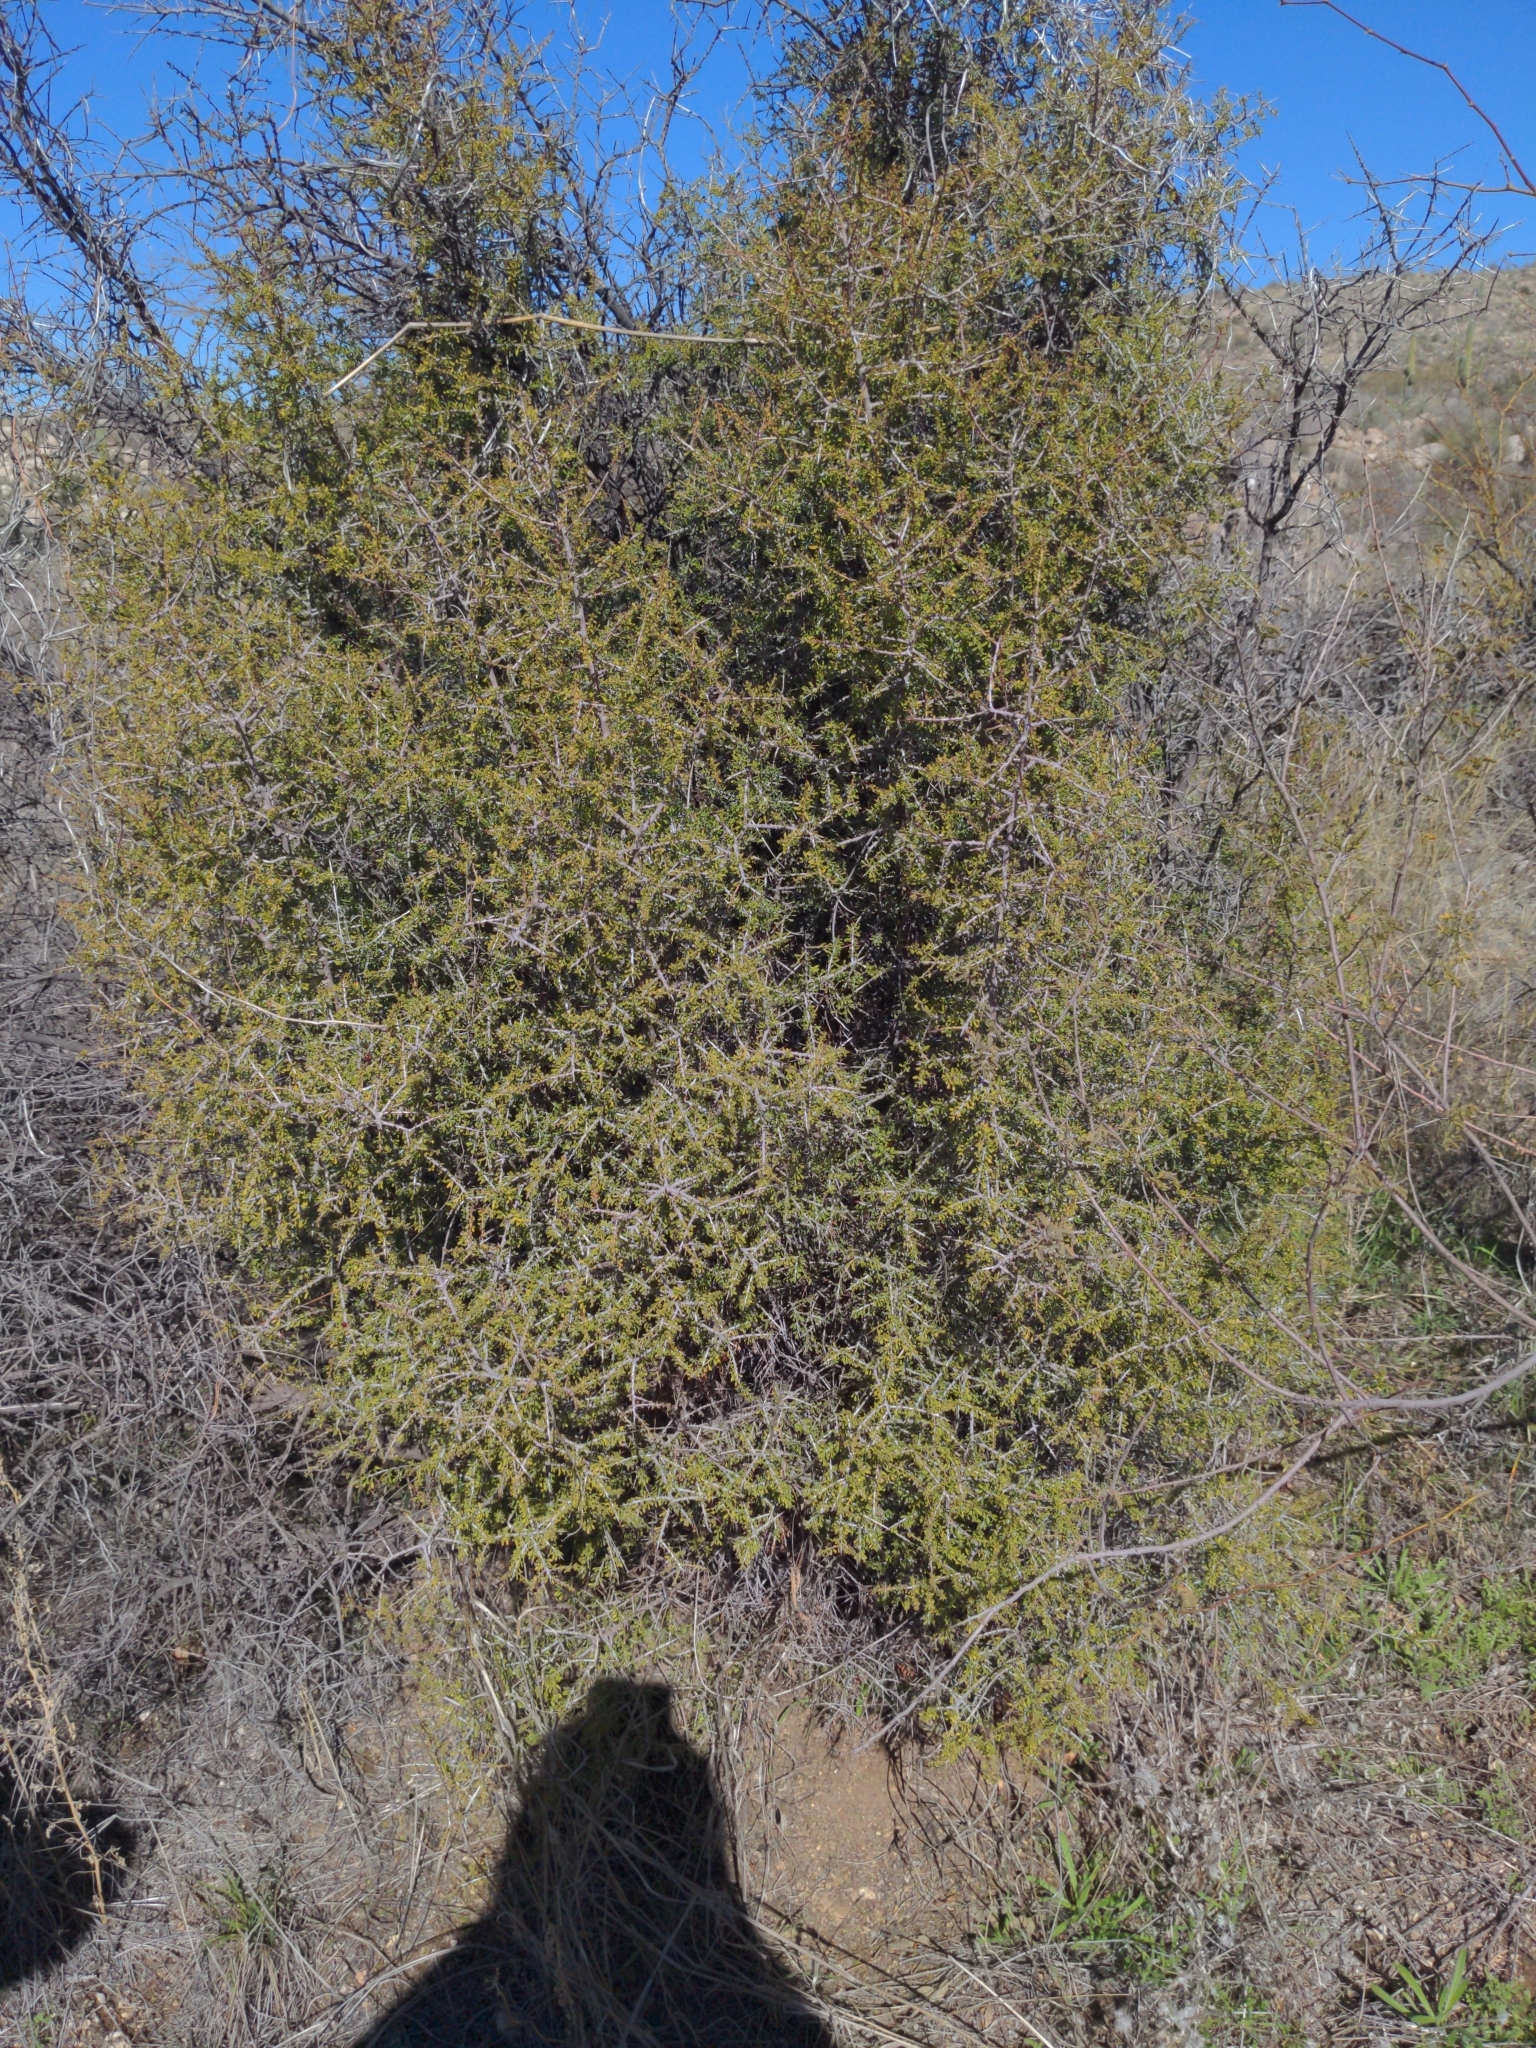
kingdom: Plantae
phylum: Tracheophyta
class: Magnoliopsida
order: Rosales
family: Rhamnaceae
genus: Condalia
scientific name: Condalia warnockii
